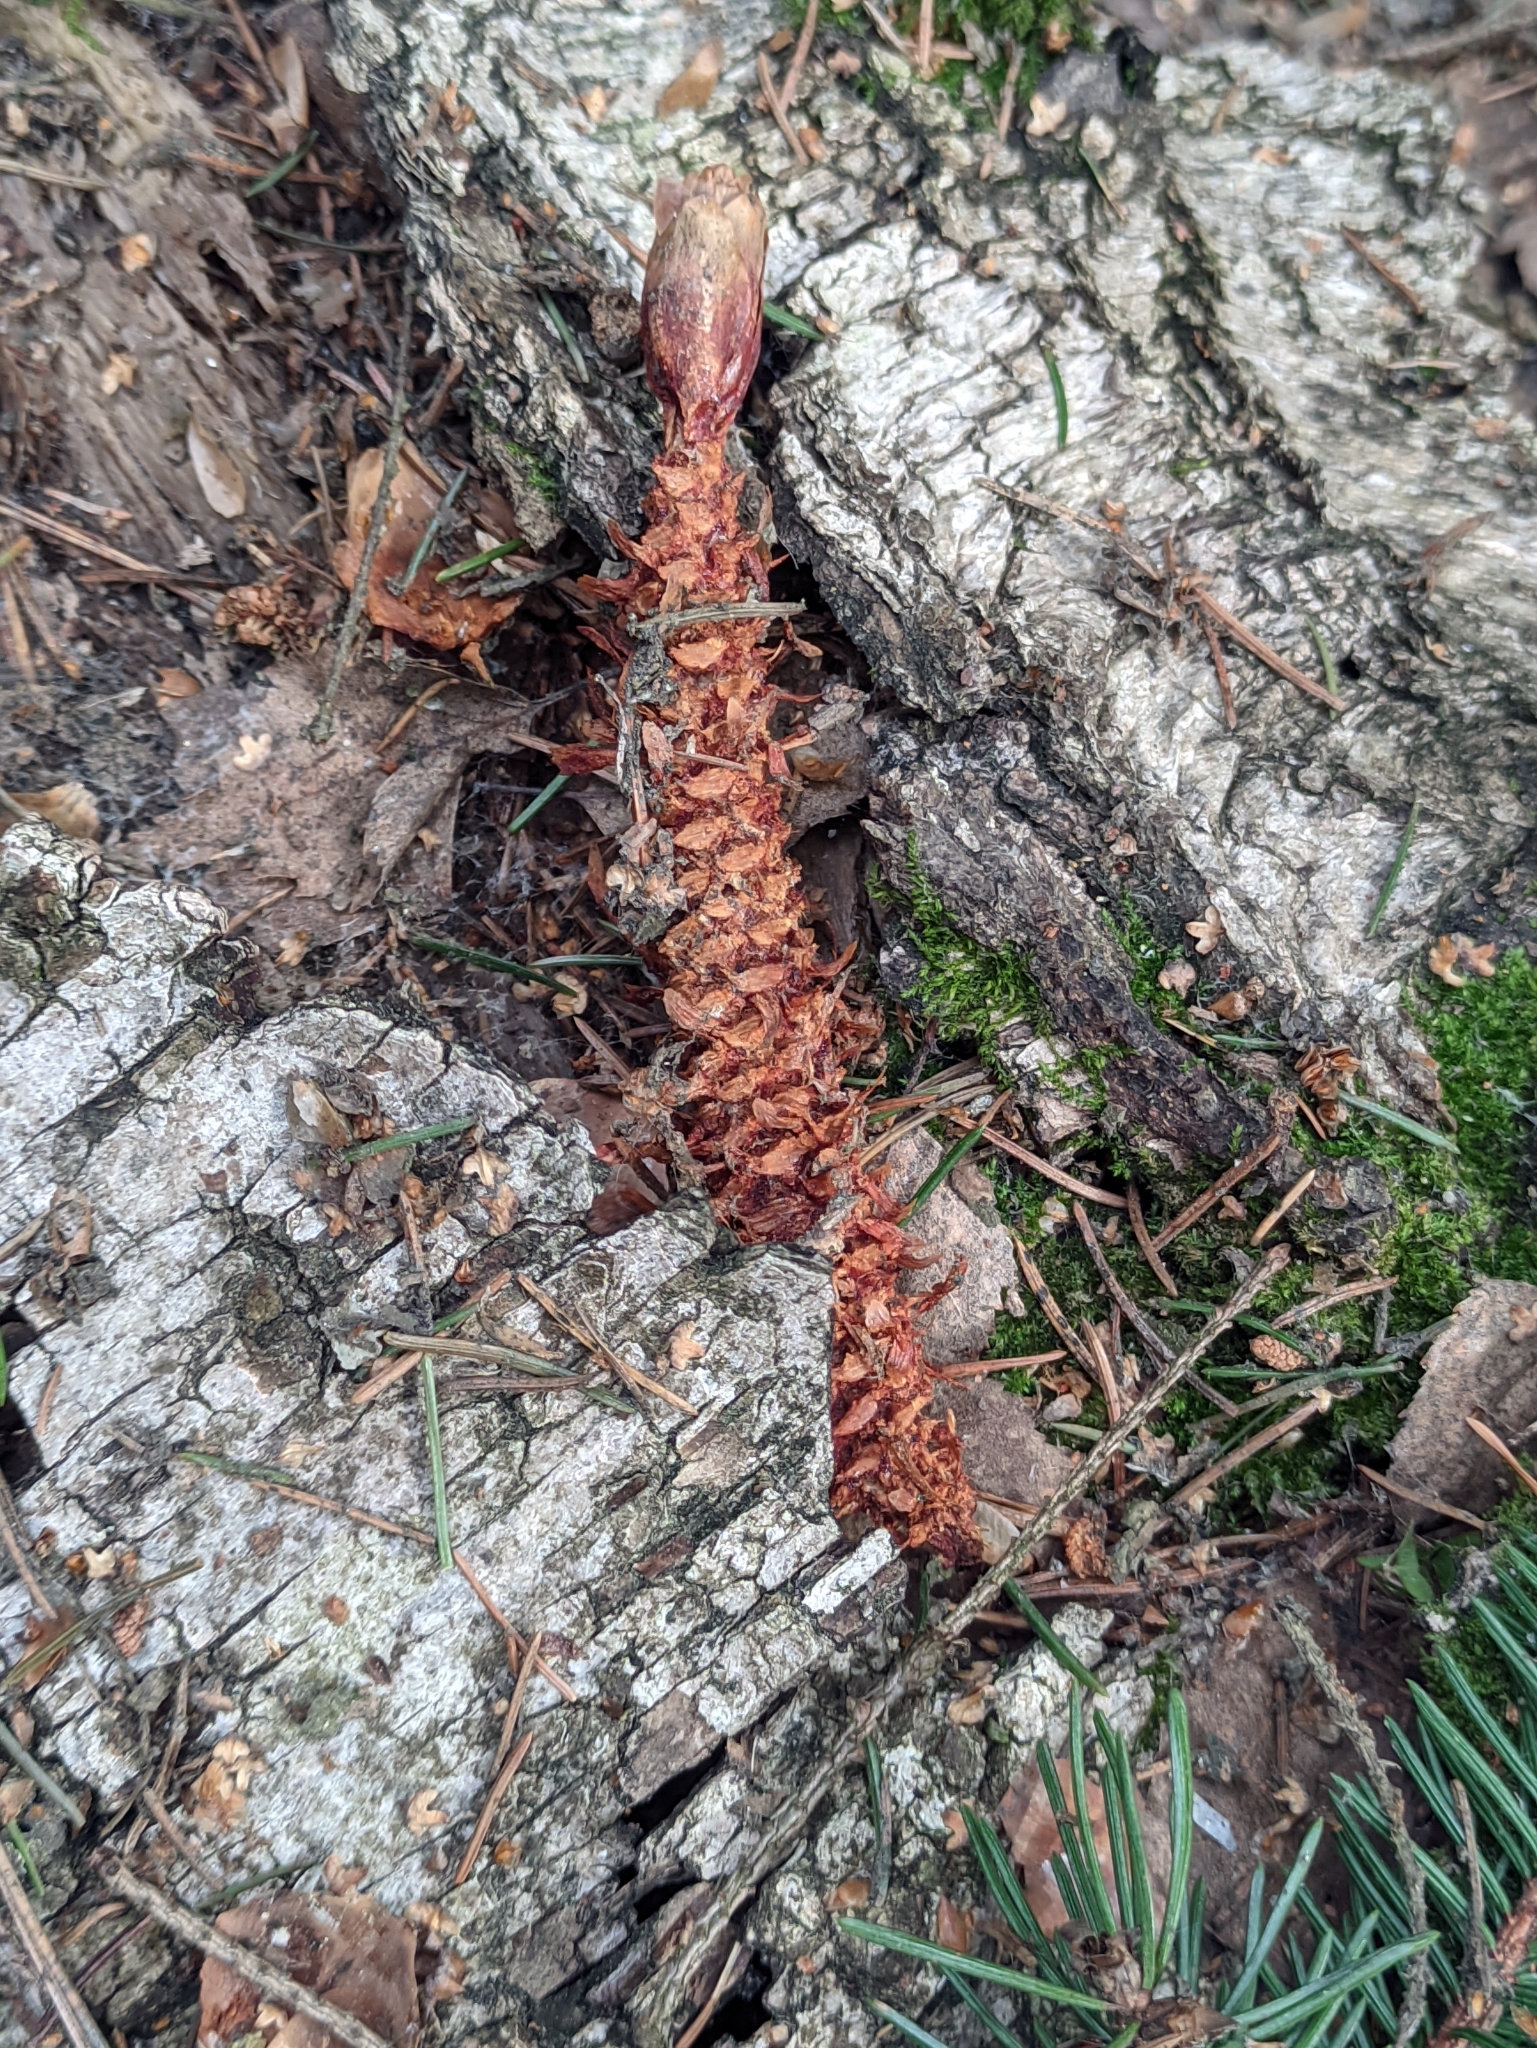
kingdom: Animalia
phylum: Chordata
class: Mammalia
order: Rodentia
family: Sciuridae
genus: Sciurus
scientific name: Sciurus vulgaris
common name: Eurasian red squirrel
